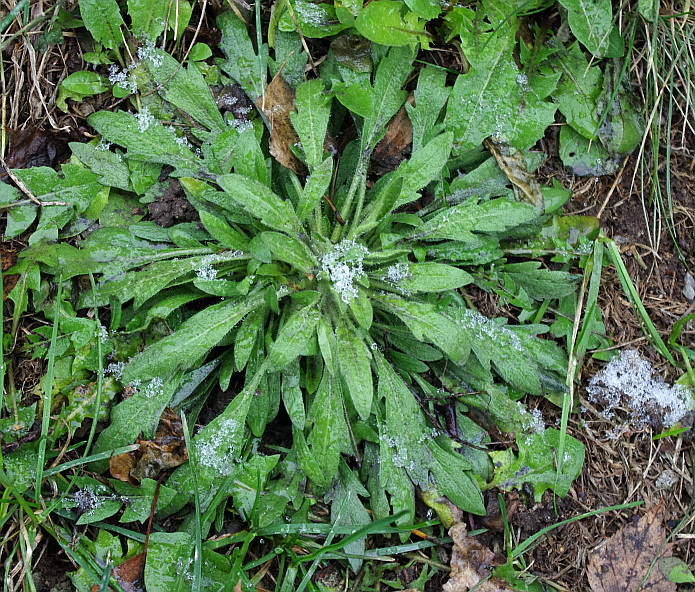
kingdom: Plantae
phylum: Tracheophyta
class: Magnoliopsida
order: Asterales
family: Asteraceae
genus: Erigeron
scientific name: Erigeron canadensis
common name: Canadian fleabane
